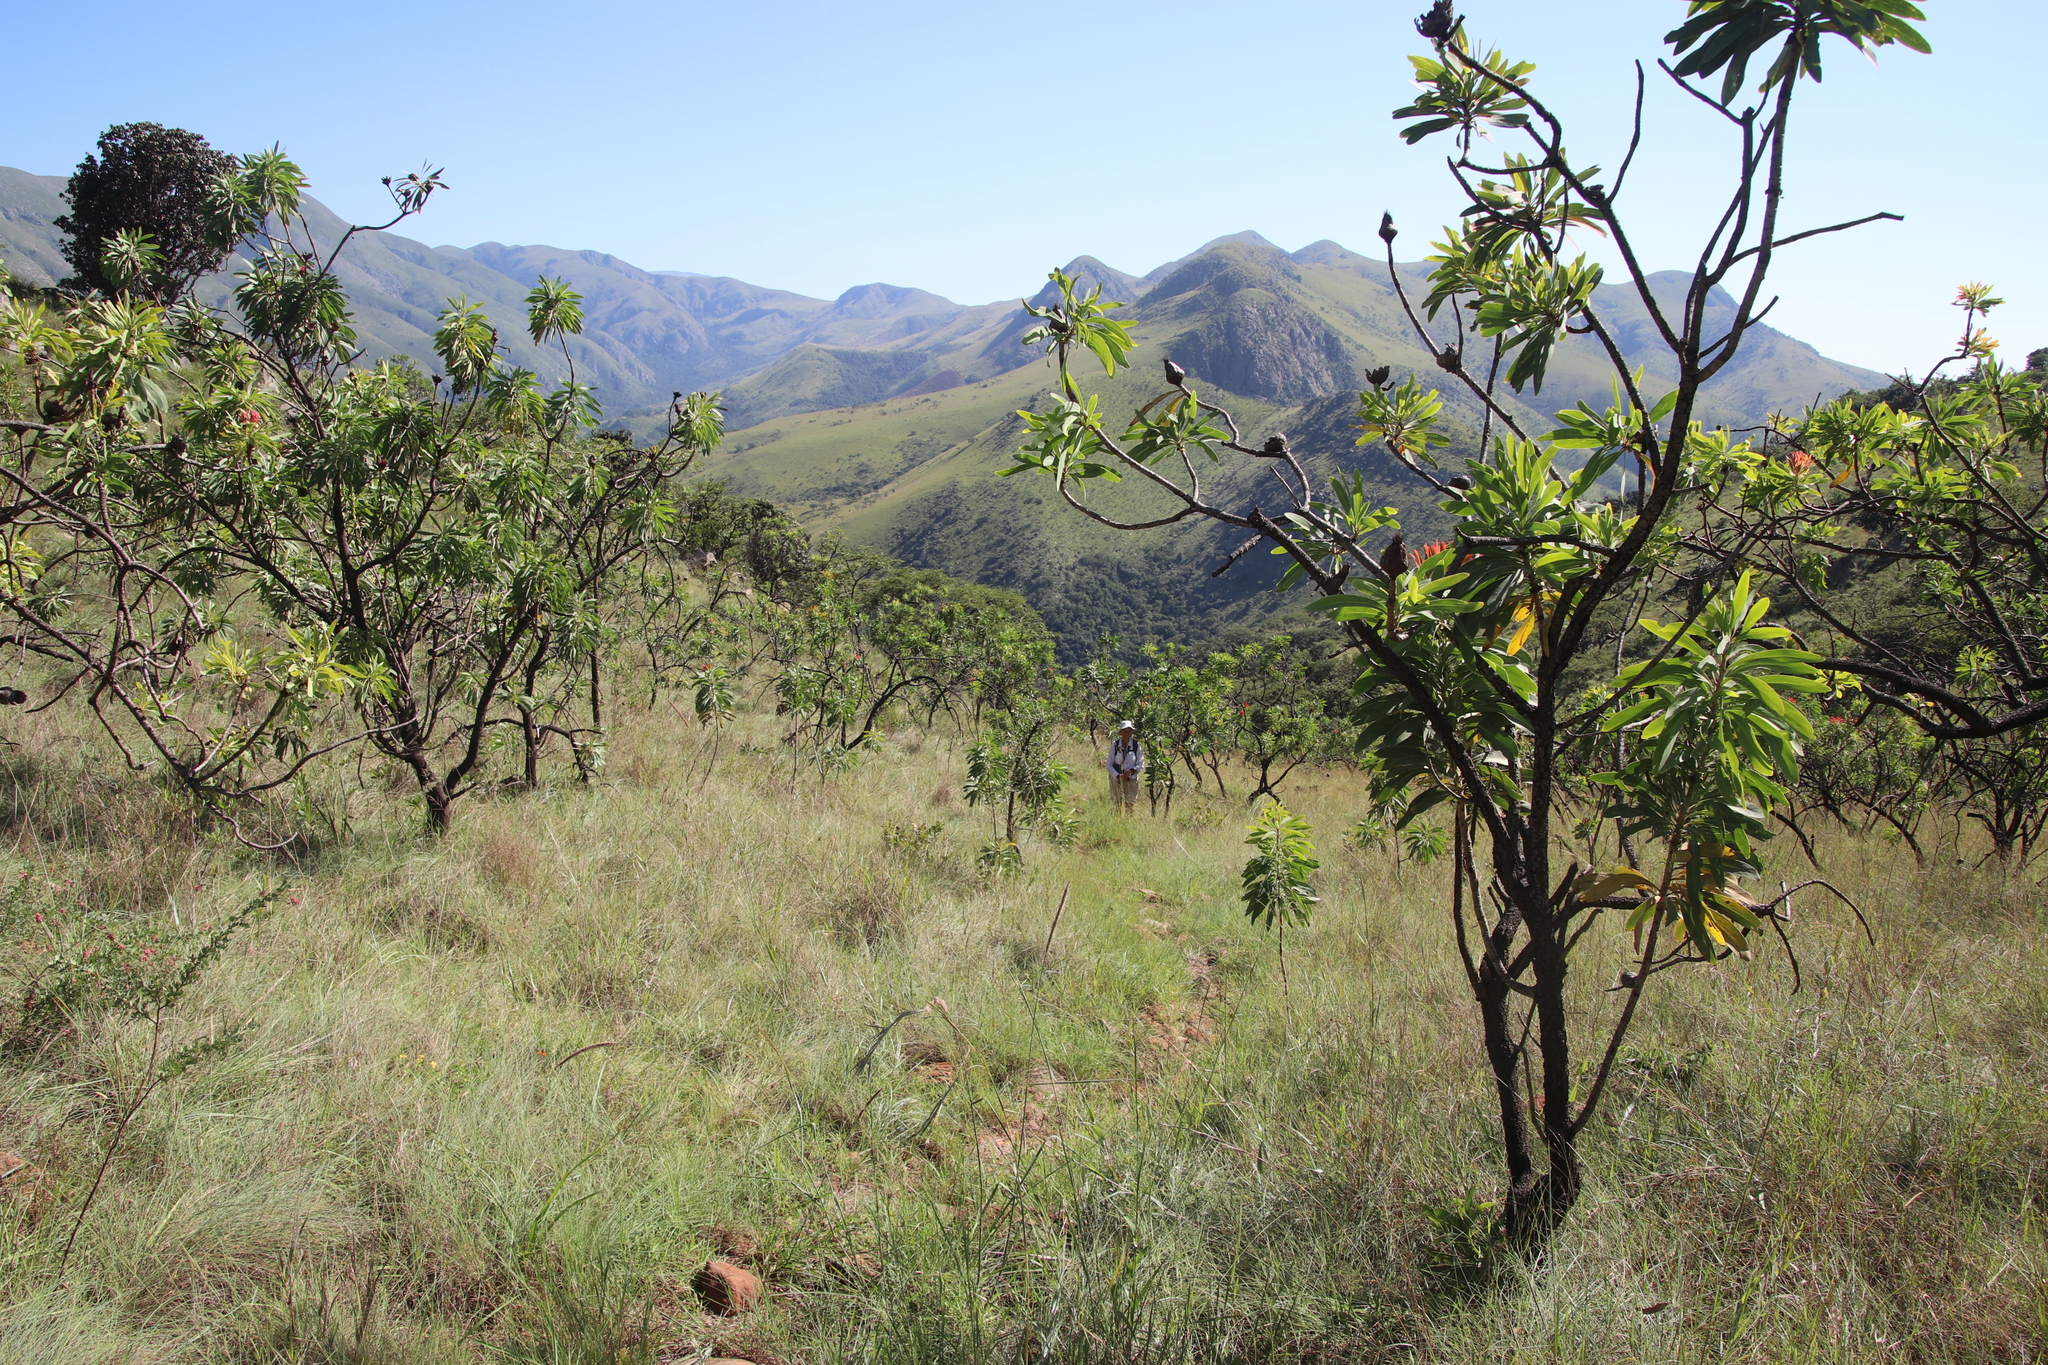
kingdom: Plantae
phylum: Tracheophyta
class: Magnoliopsida
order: Proteales
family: Proteaceae
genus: Protea
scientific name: Protea caffra
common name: Common sugarbush
